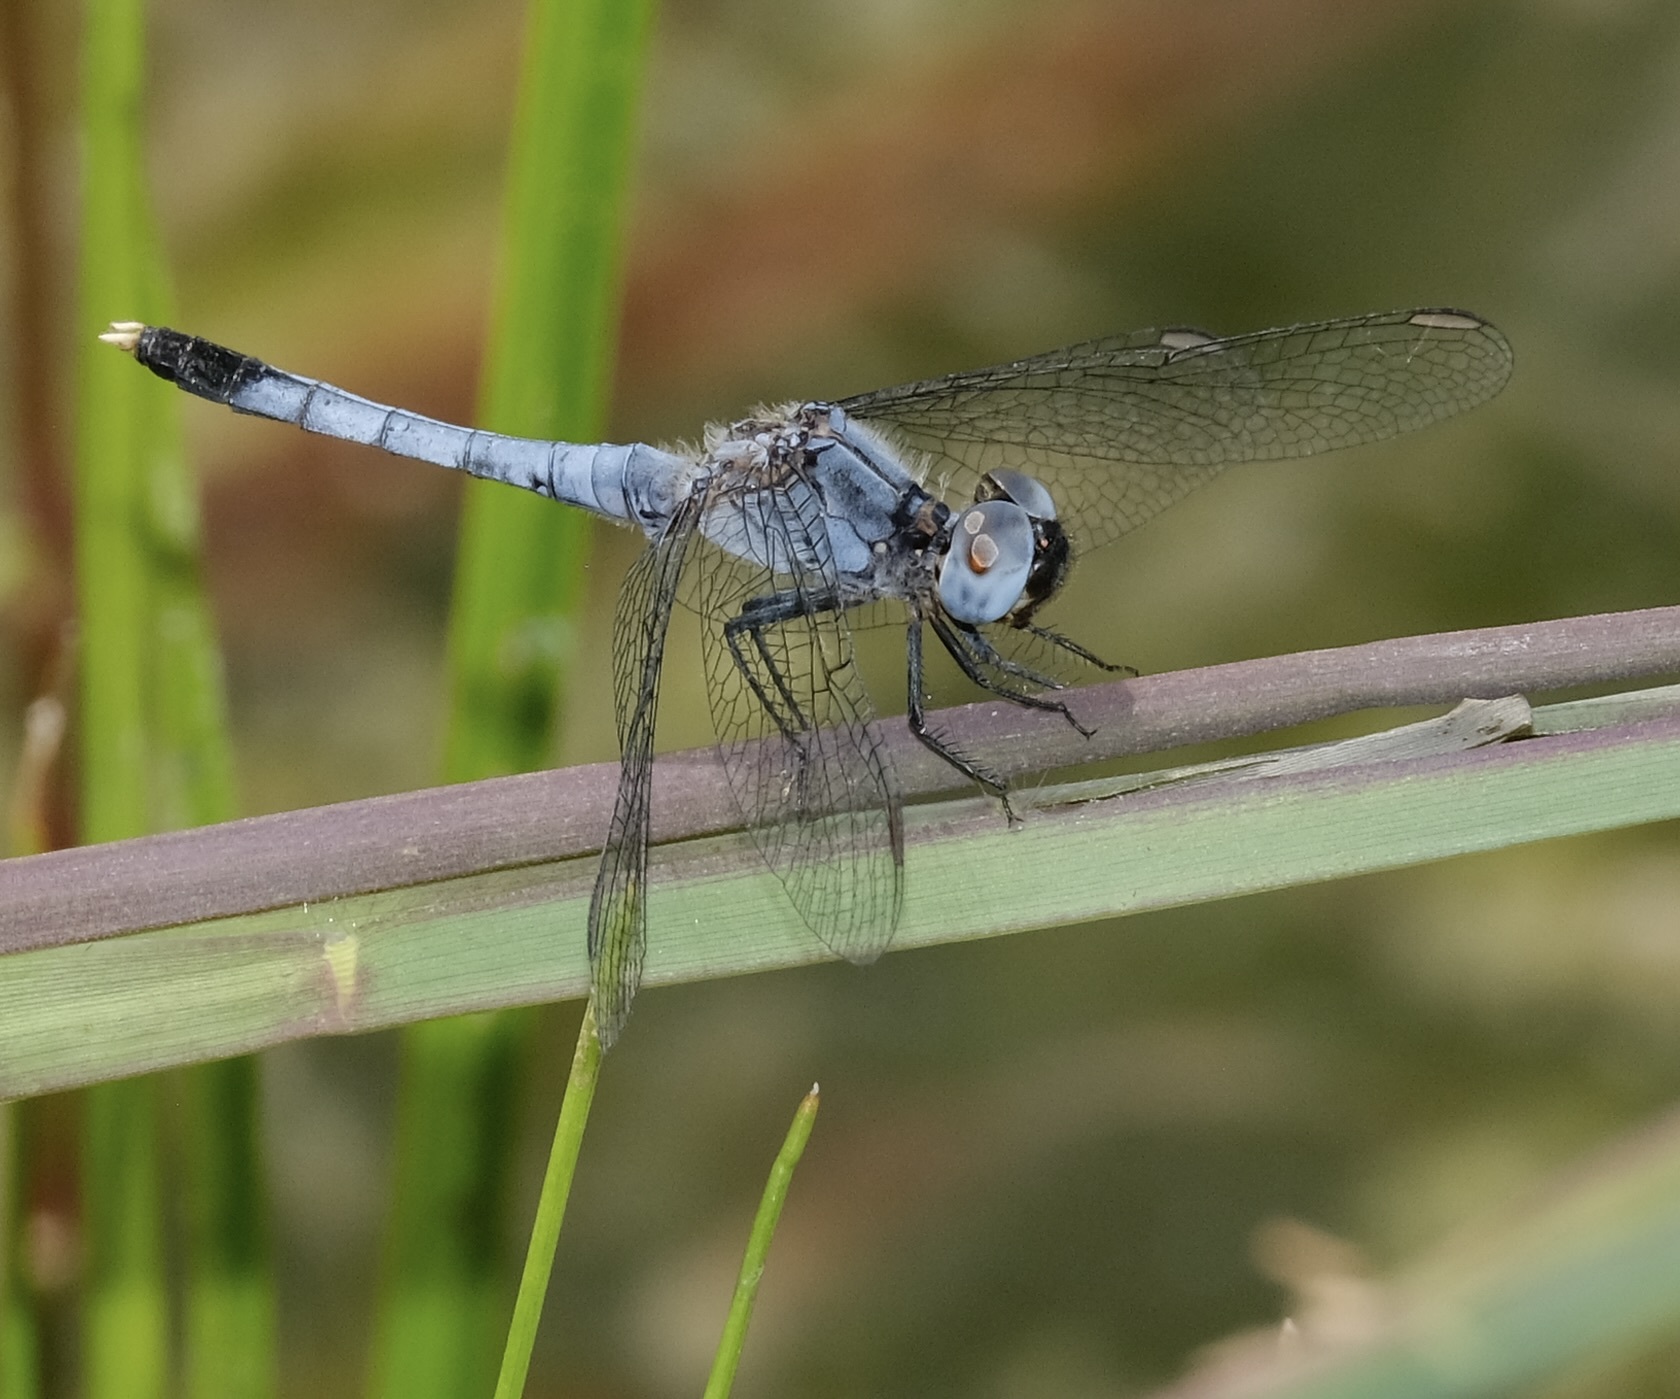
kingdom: Animalia
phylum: Arthropoda
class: Insecta
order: Odonata
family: Libellulidae
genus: Erythrodiplax
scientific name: Erythrodiplax minuscula
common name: Little blue dragonlet
